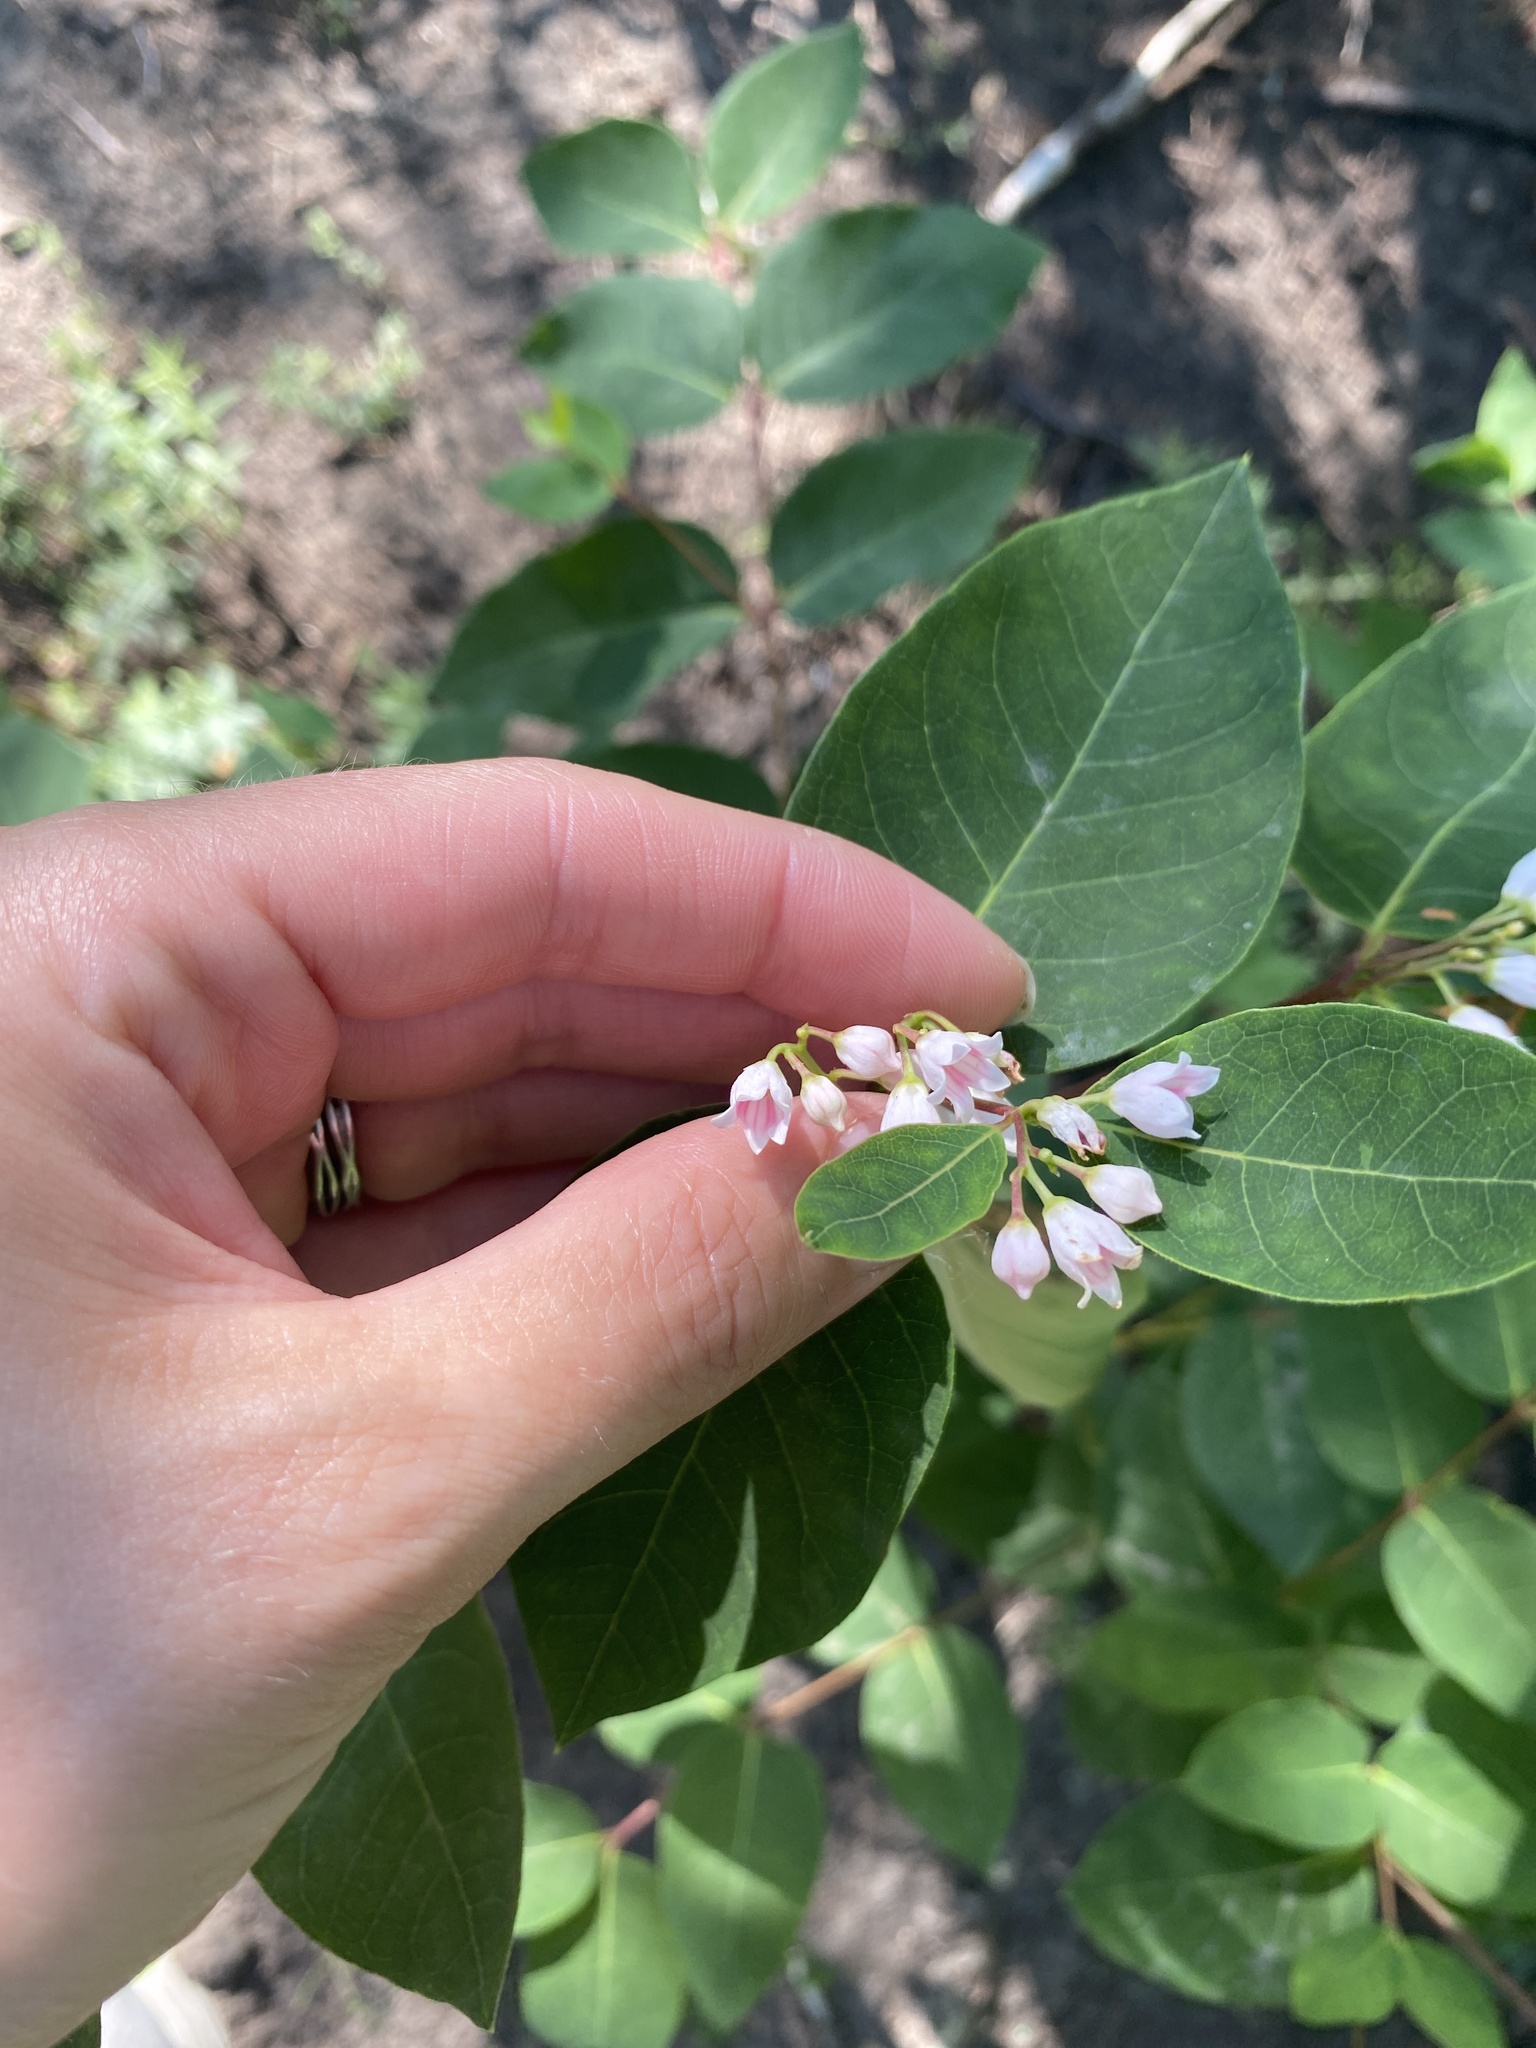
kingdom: Plantae
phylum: Tracheophyta
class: Magnoliopsida
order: Gentianales
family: Apocynaceae
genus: Apocynum
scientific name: Apocynum androsaemifolium
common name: Spreading dogbane
